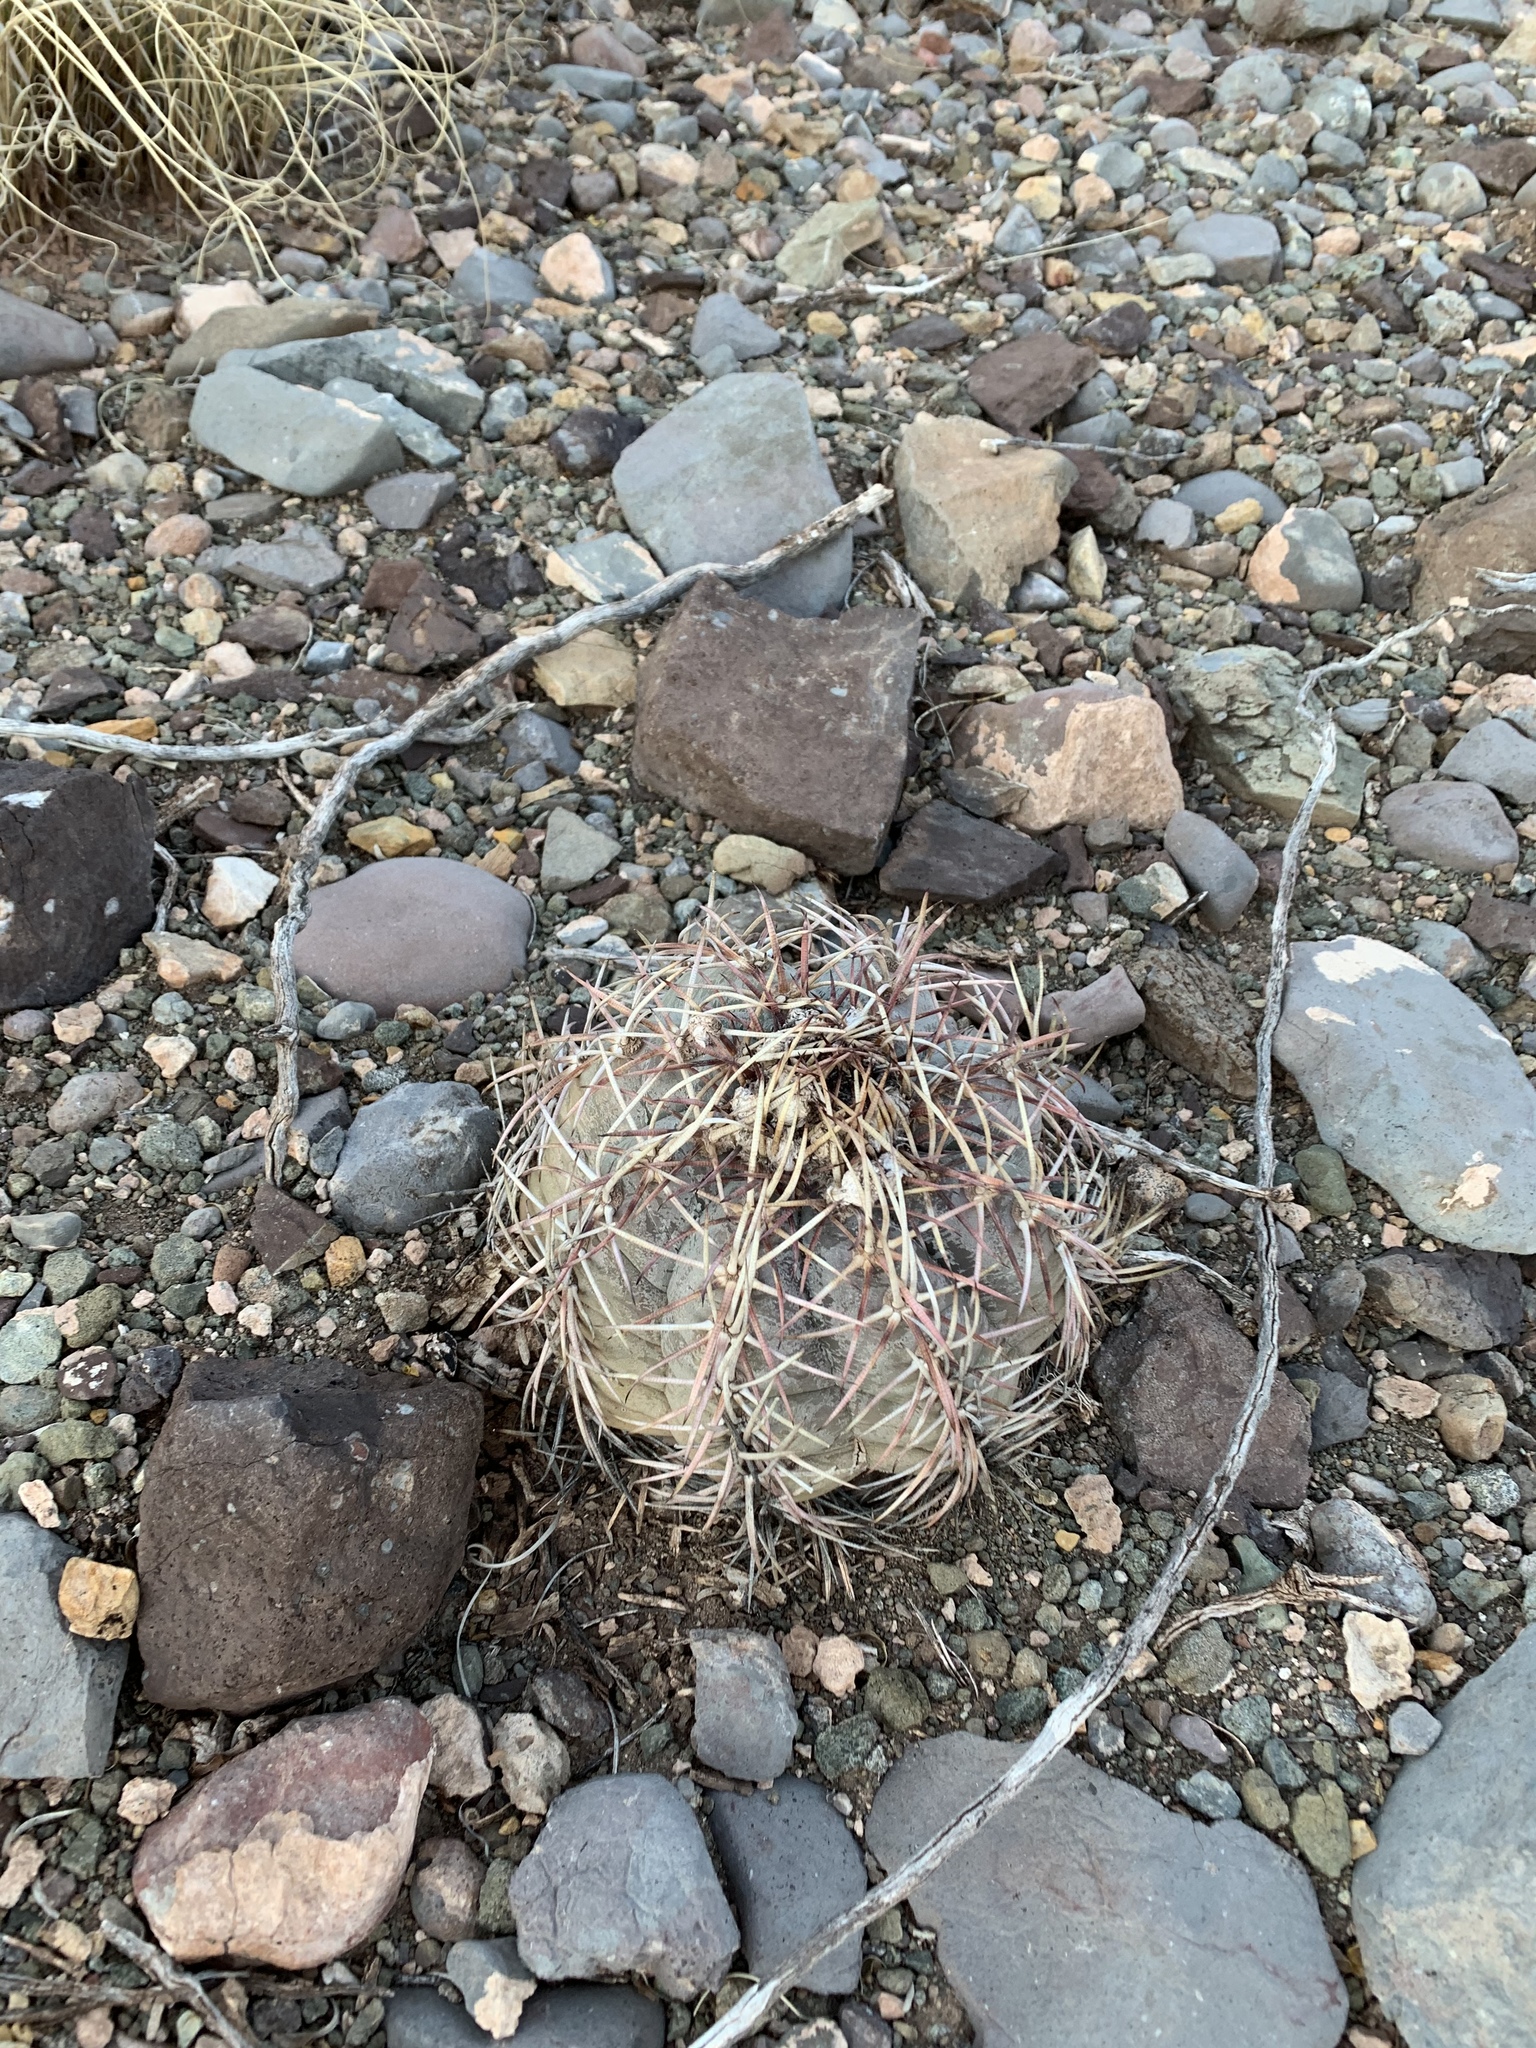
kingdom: Plantae
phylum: Tracheophyta
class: Magnoliopsida
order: Caryophyllales
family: Cactaceae
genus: Echinocactus
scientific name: Echinocactus horizonthalonius
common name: Devilshead
